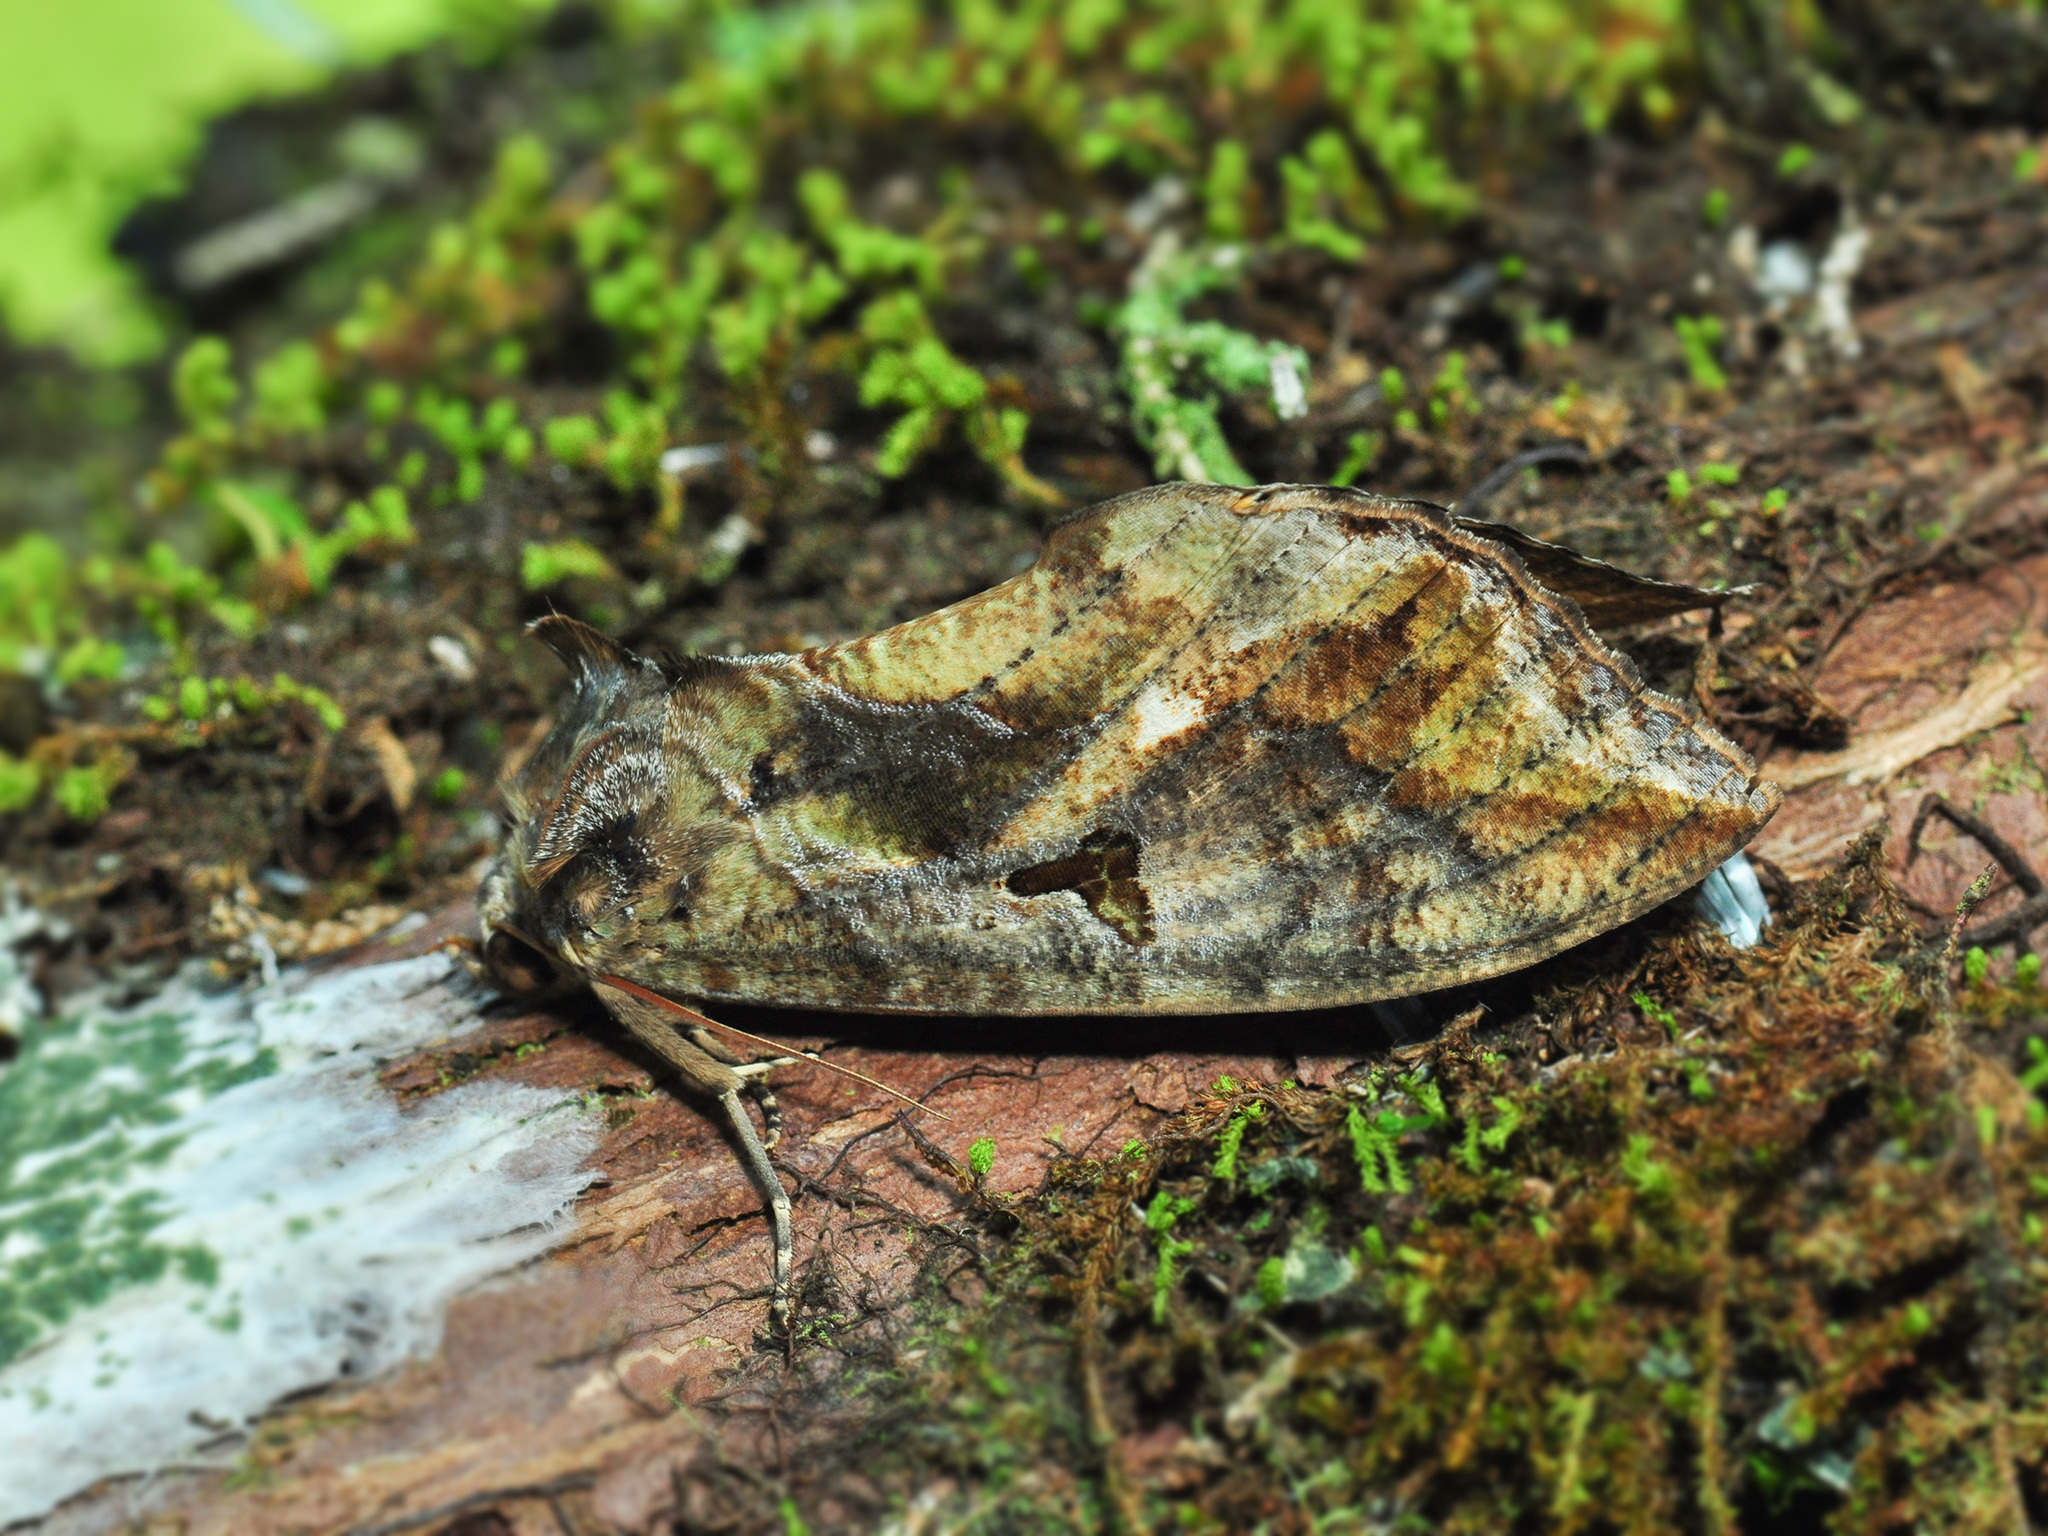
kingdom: Animalia
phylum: Arthropoda
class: Insecta
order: Lepidoptera
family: Erebidae
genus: Eudocima
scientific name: Eudocima phalonia
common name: Wasp
